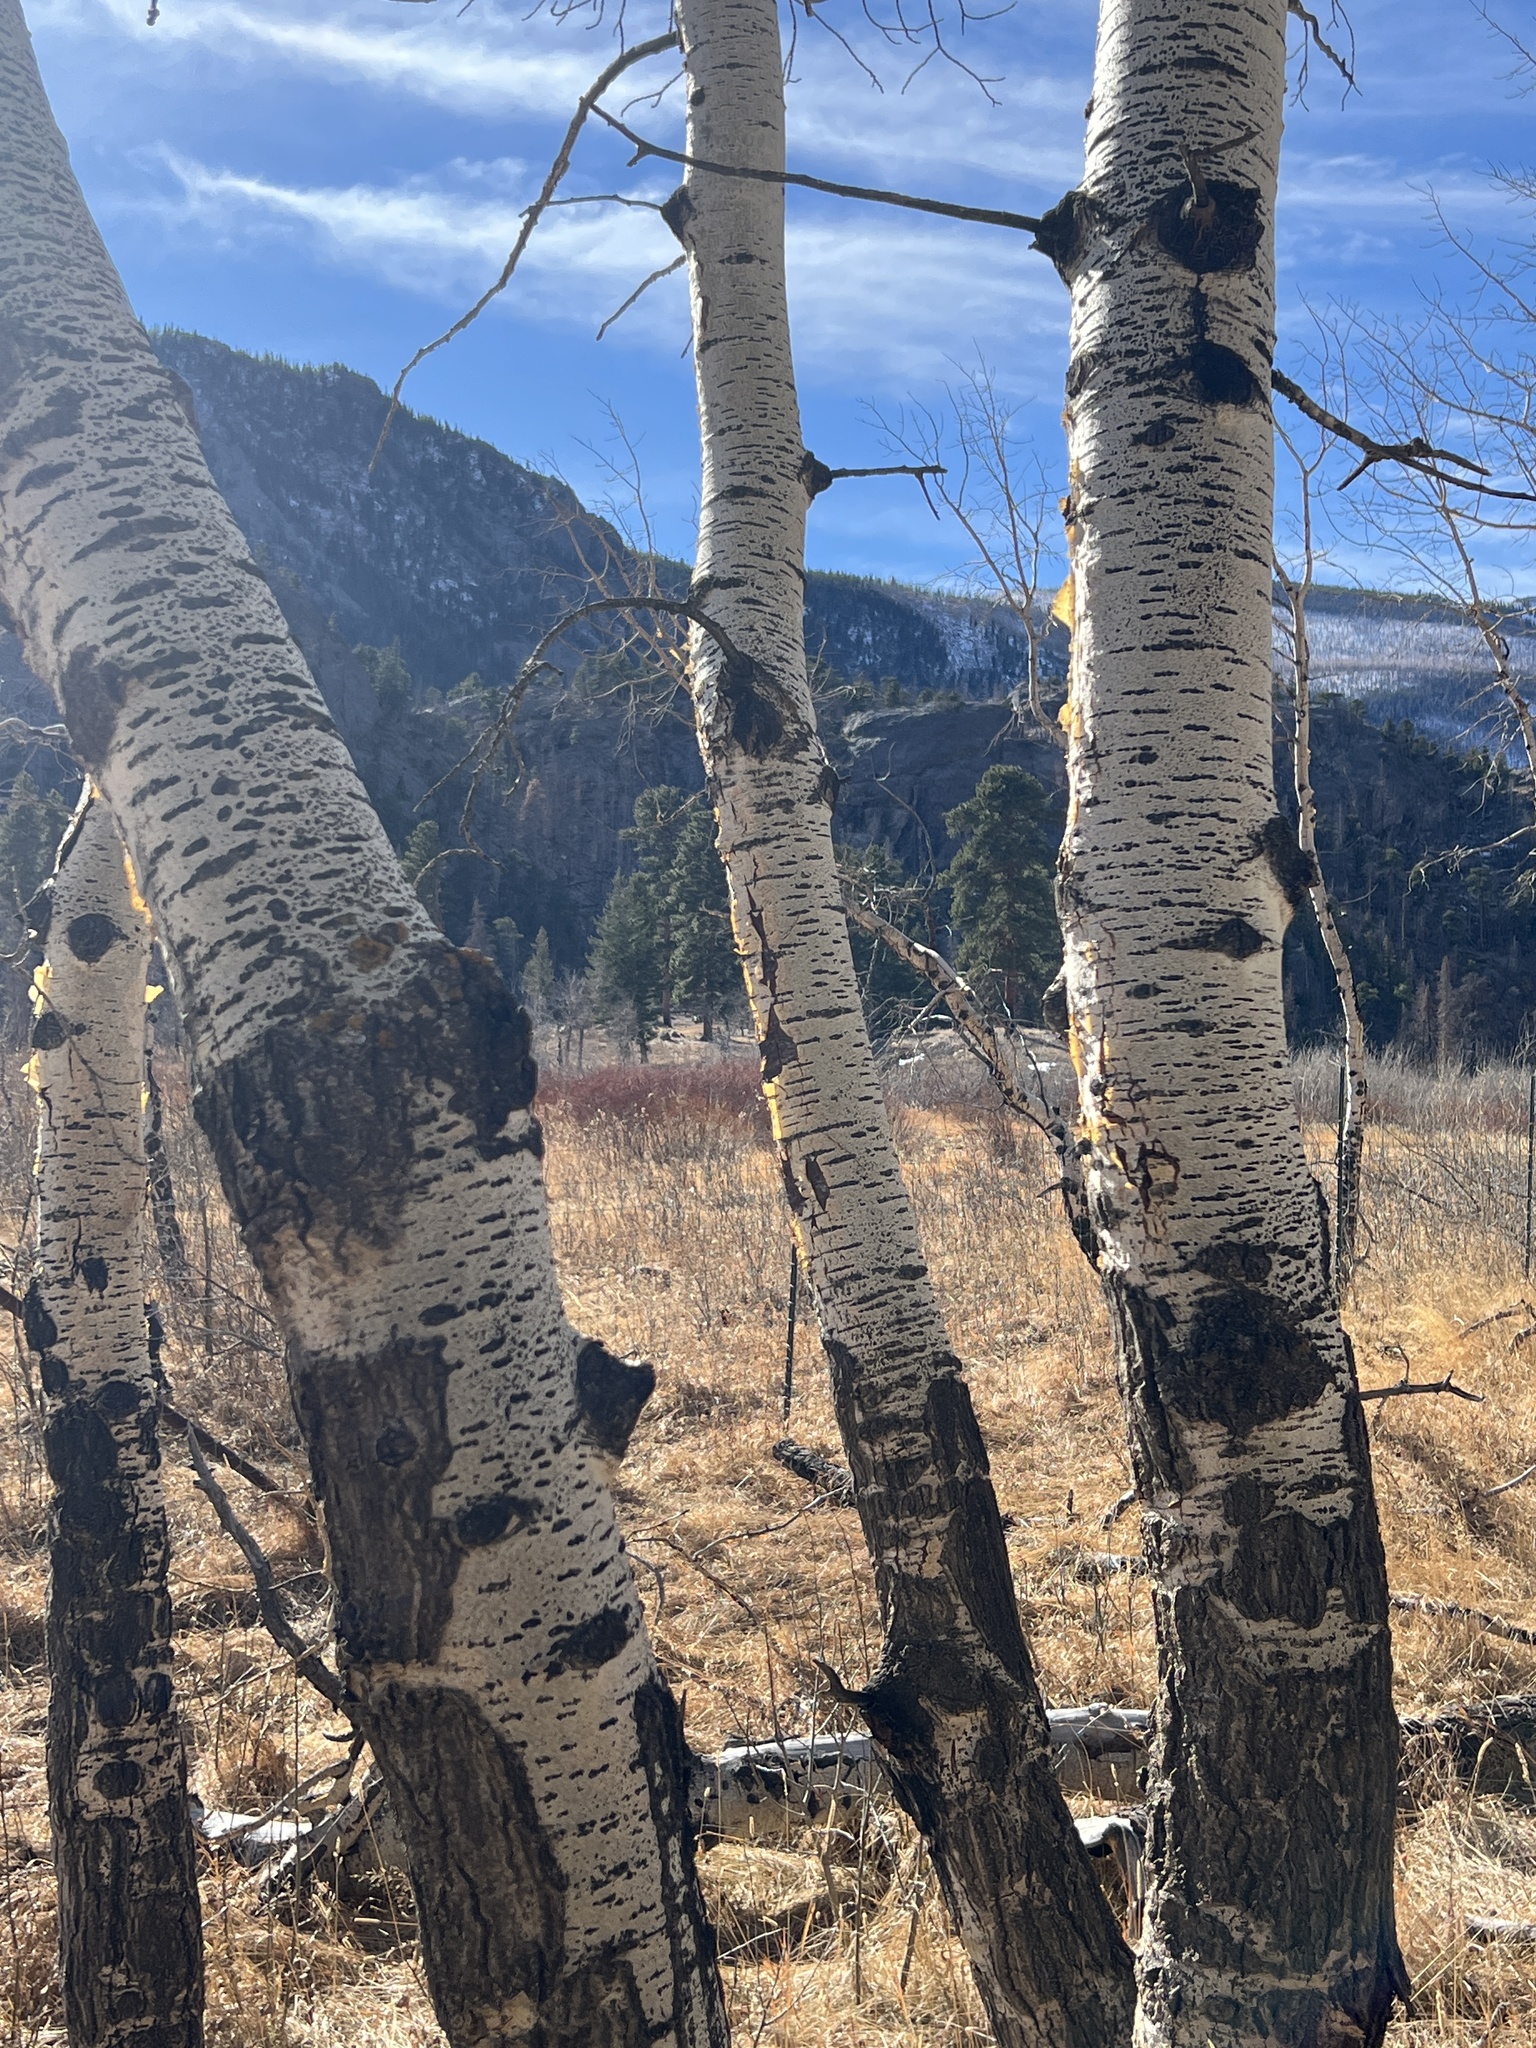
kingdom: Plantae
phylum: Tracheophyta
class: Magnoliopsida
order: Malpighiales
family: Salicaceae
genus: Populus
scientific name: Populus tremuloides
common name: Quaking aspen
